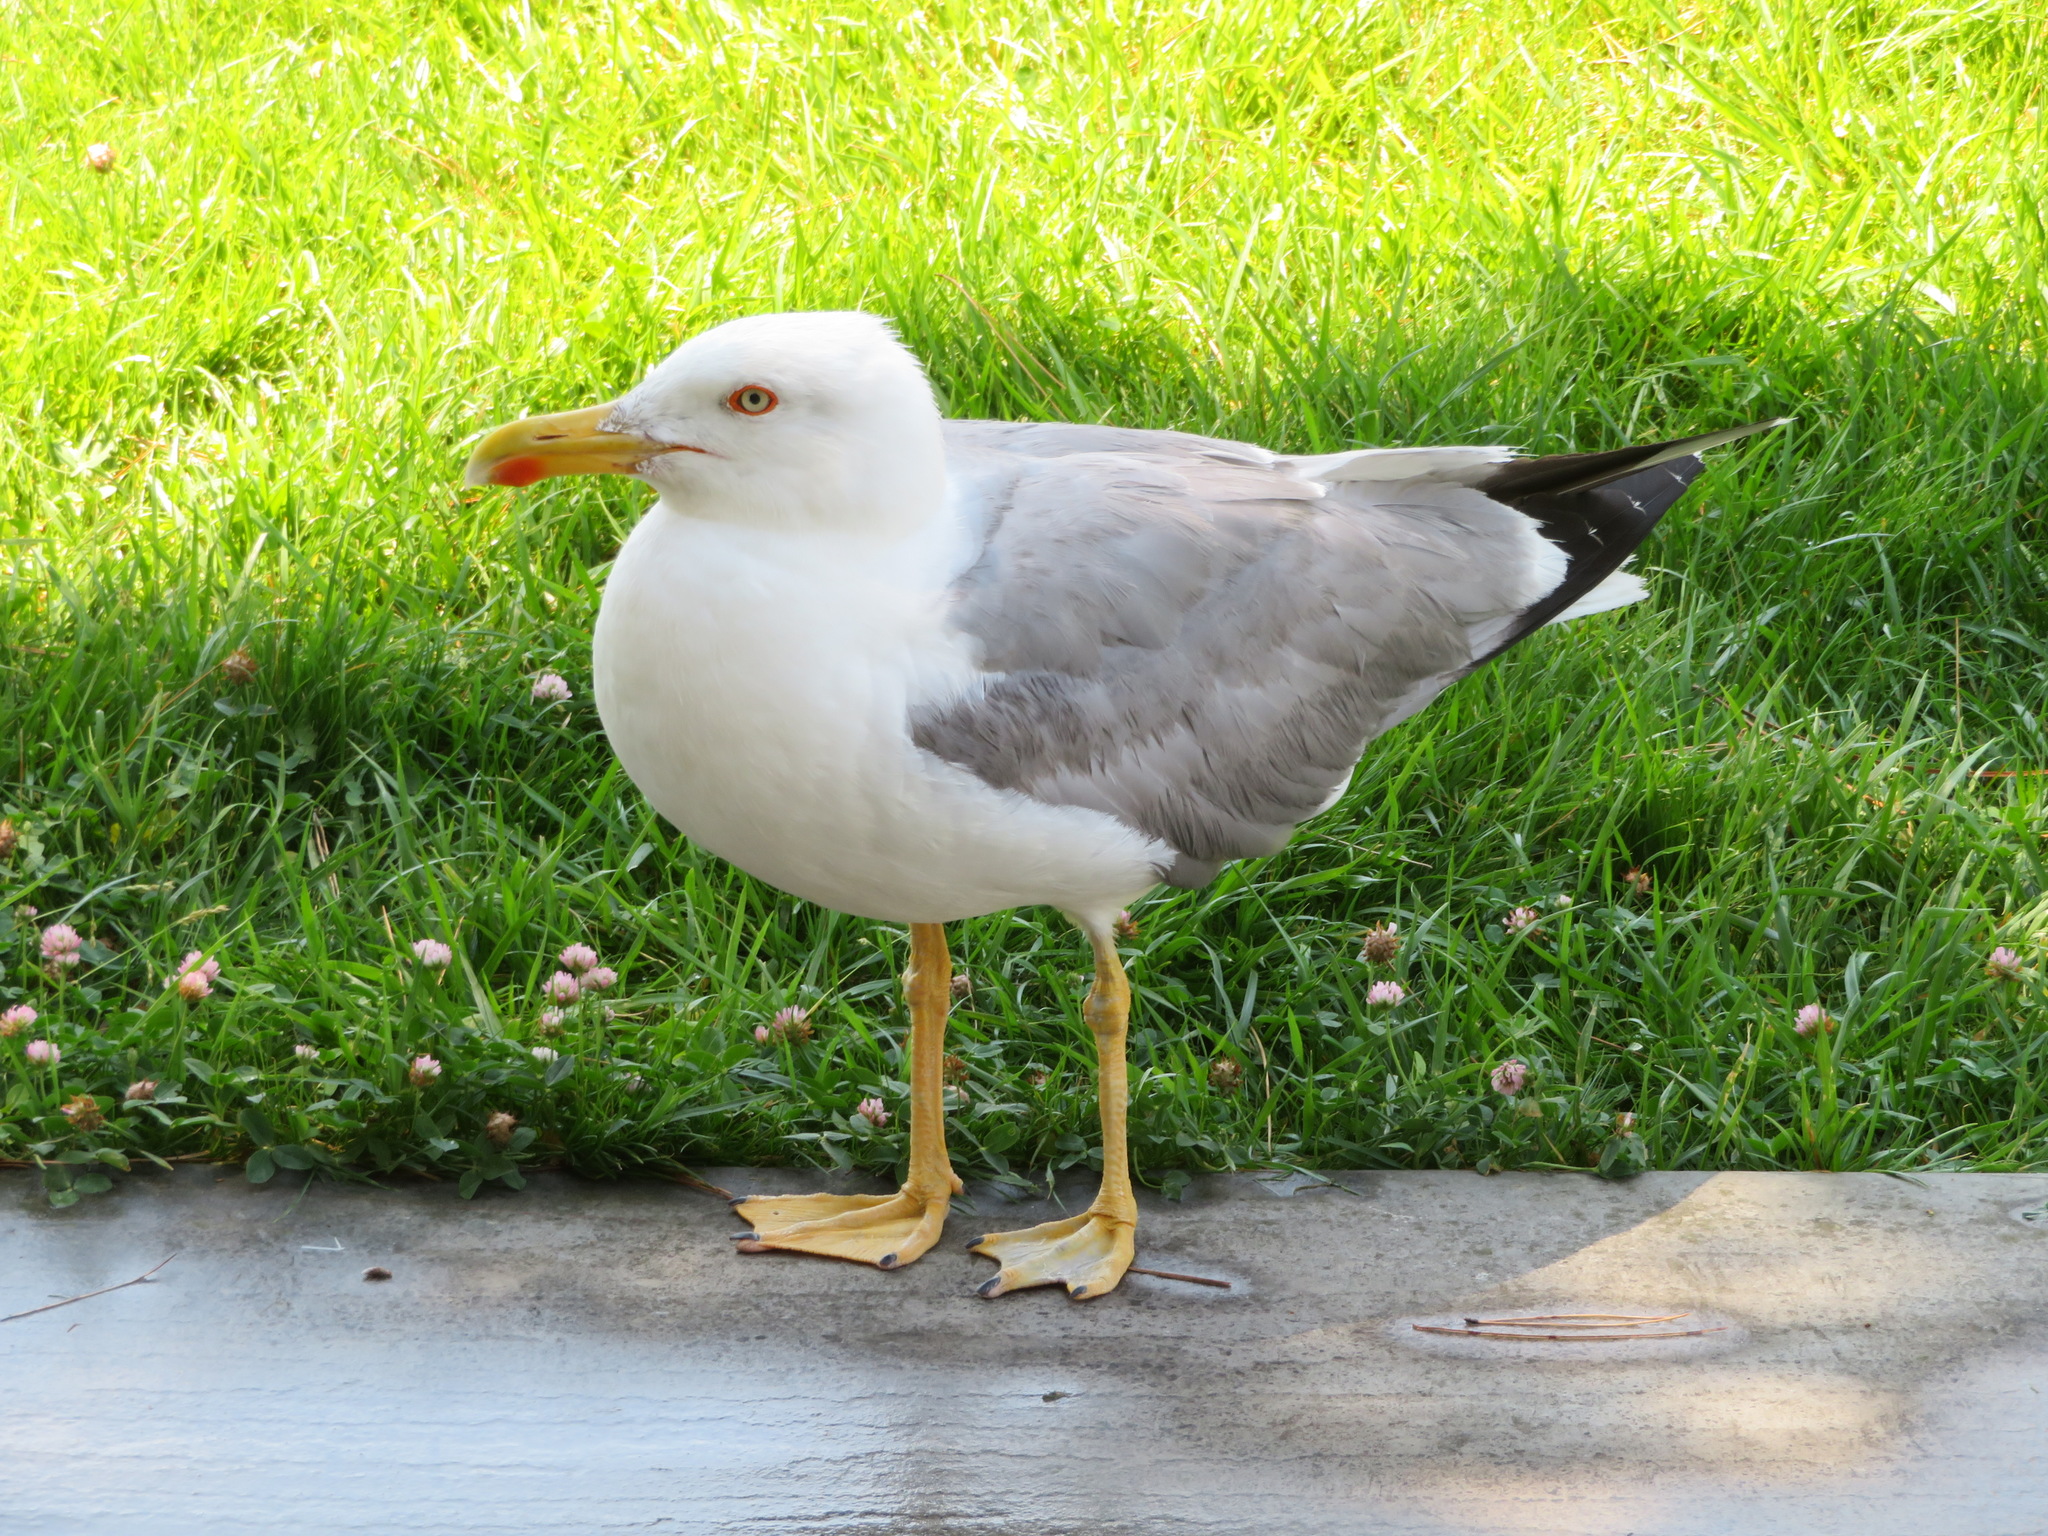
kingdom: Animalia
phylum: Chordata
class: Aves
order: Charadriiformes
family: Laridae
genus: Larus
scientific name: Larus michahellis
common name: Yellow-legged gull
